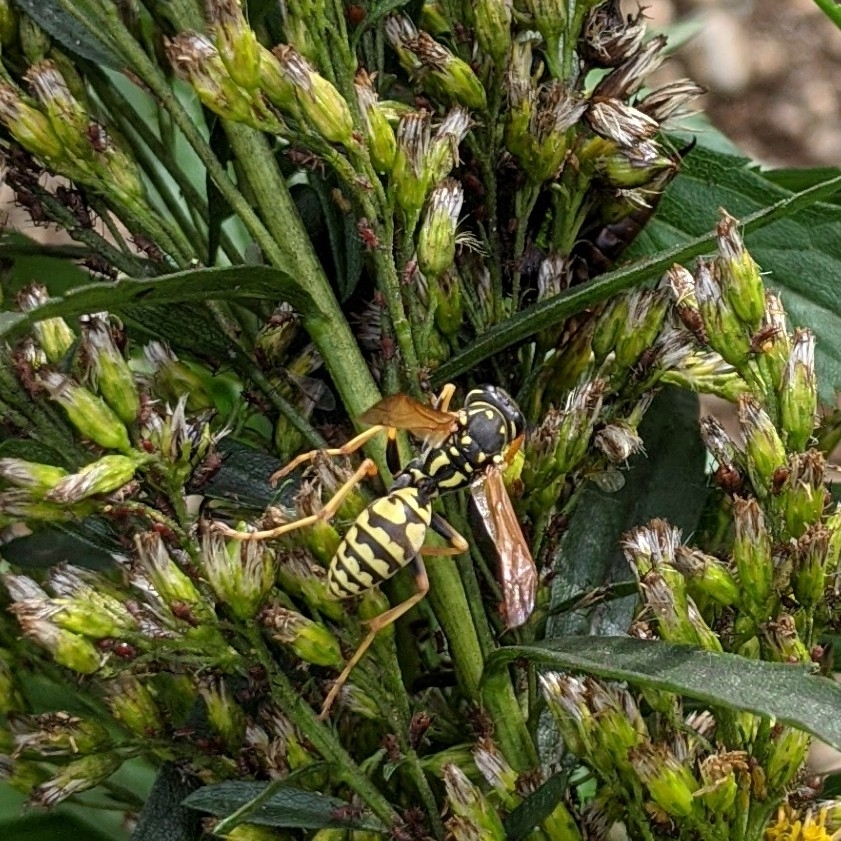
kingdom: Animalia
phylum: Arthropoda
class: Insecta
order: Hymenoptera
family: Eumenidae
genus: Polistes
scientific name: Polistes dominula
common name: Paper wasp
